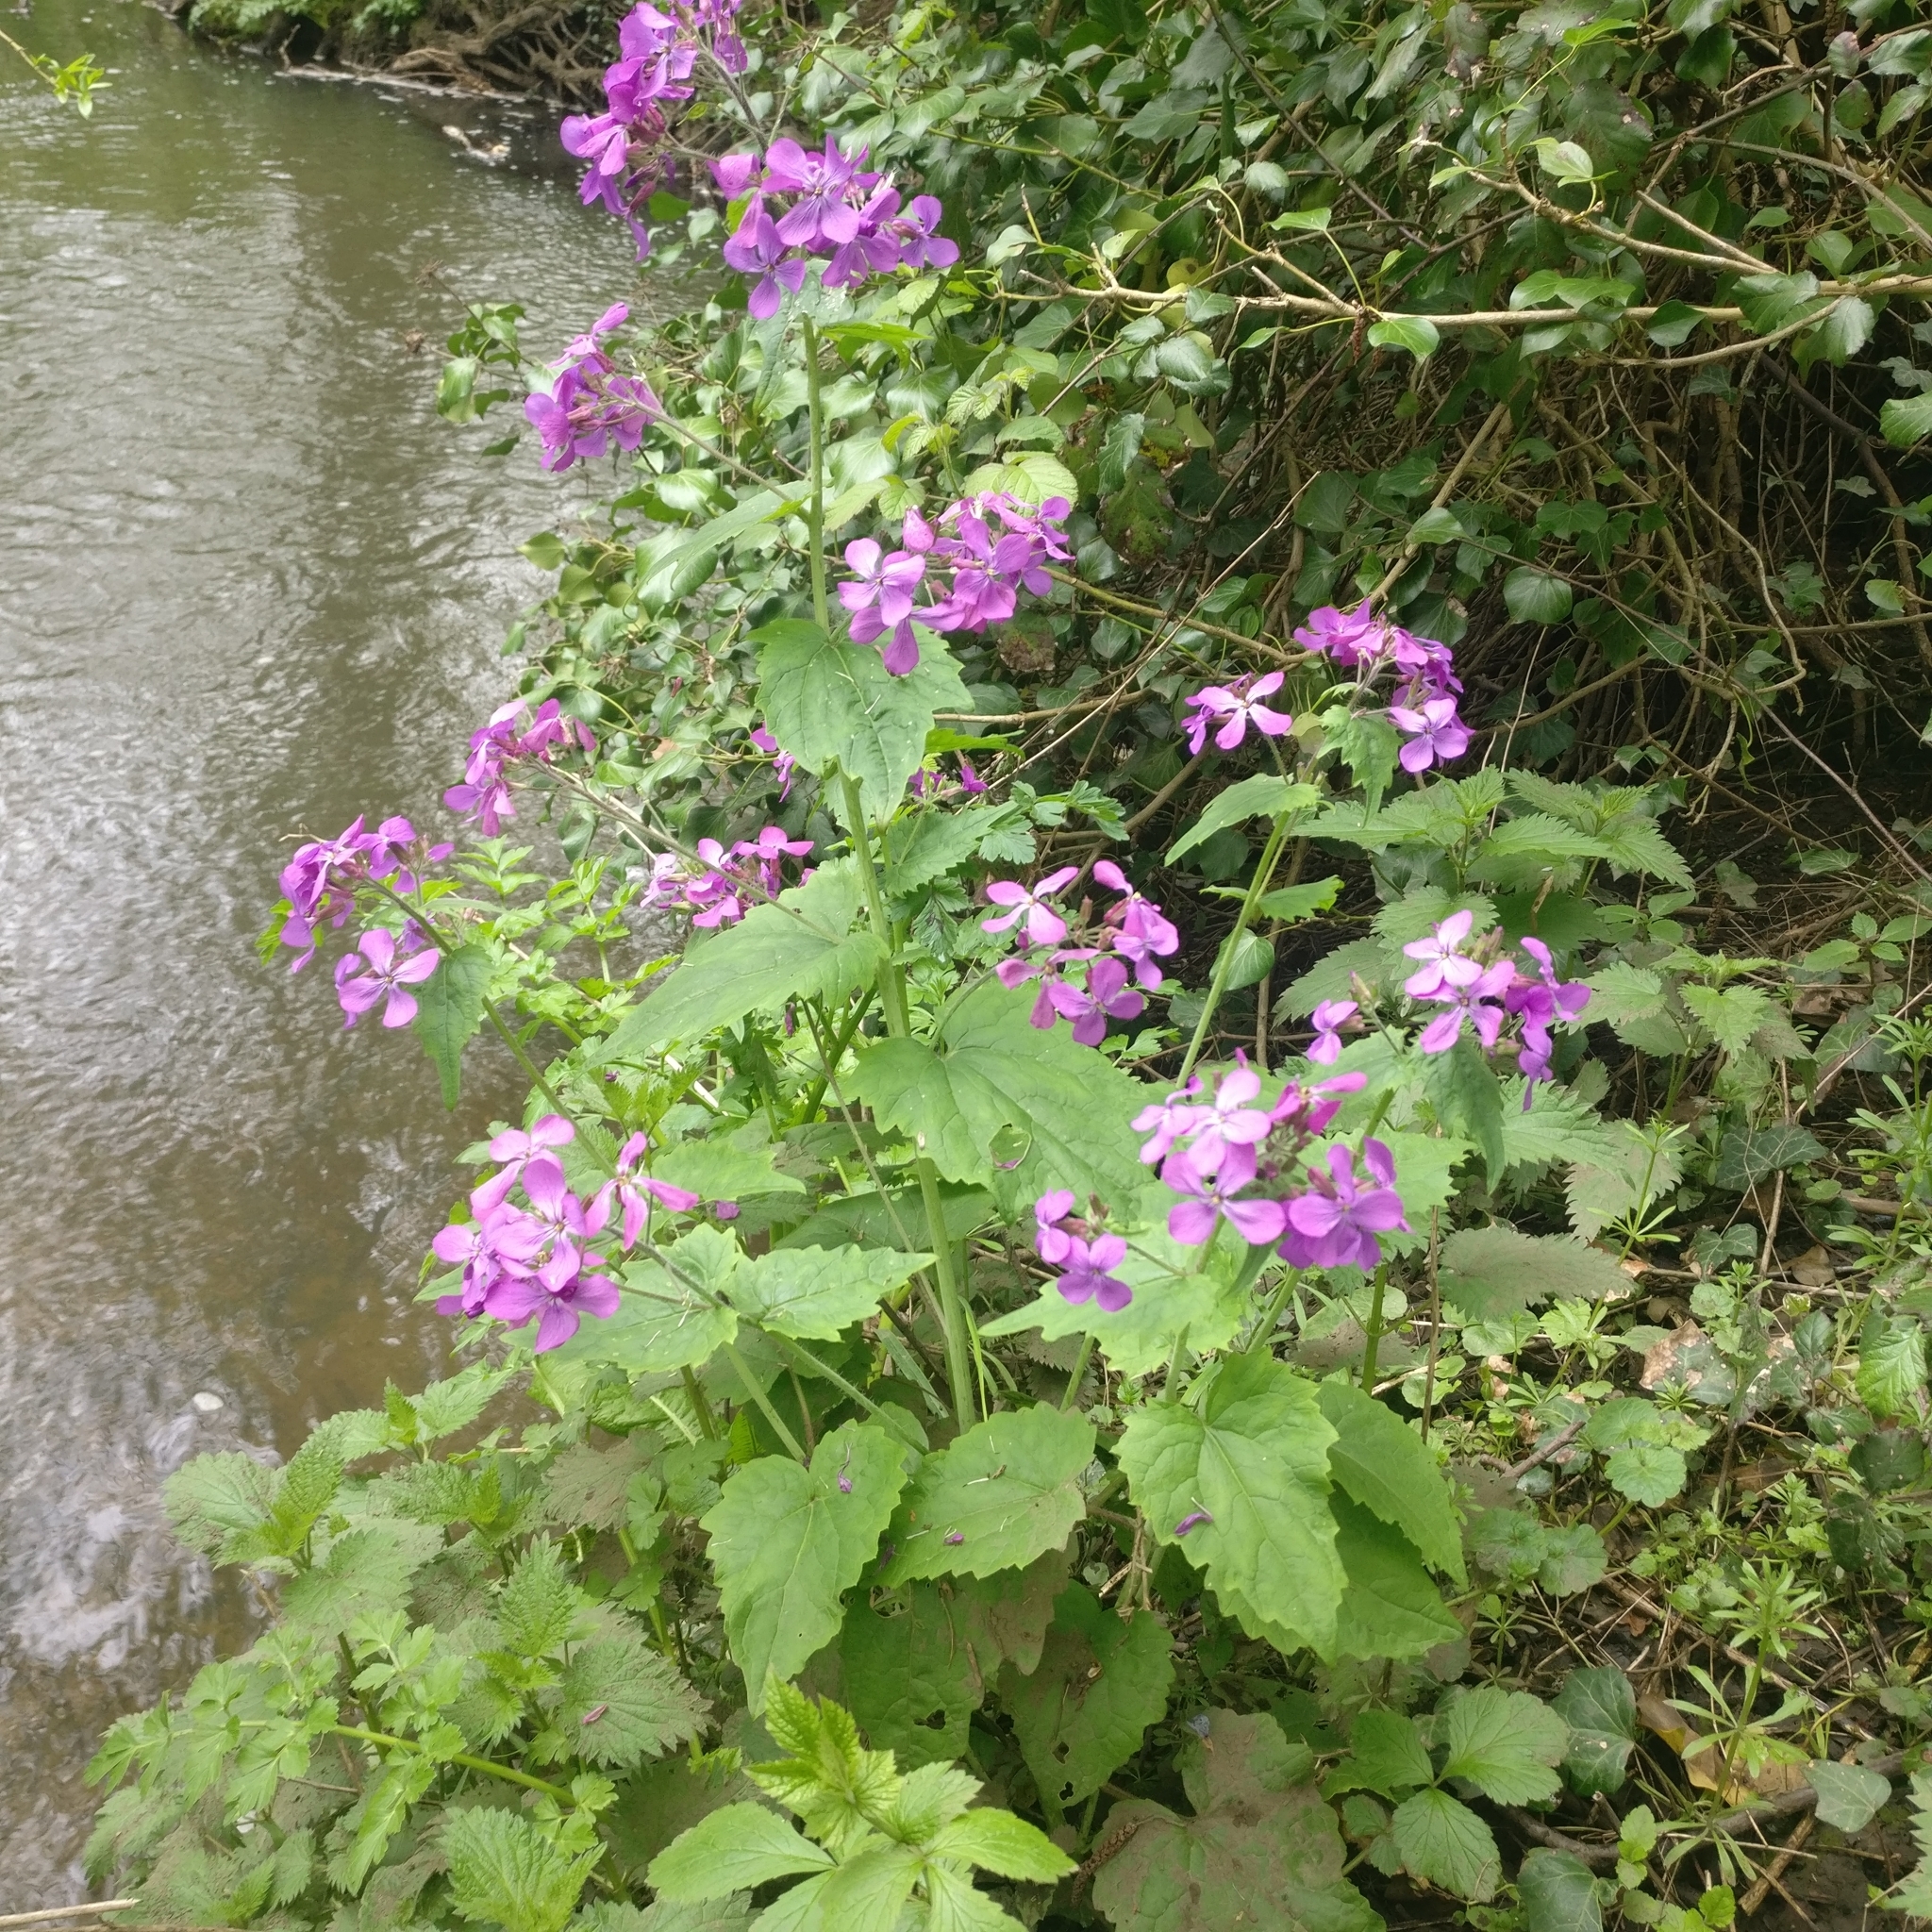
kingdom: Plantae
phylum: Tracheophyta
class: Magnoliopsida
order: Brassicales
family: Brassicaceae
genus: Lunaria
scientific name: Lunaria annua
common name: Honesty
